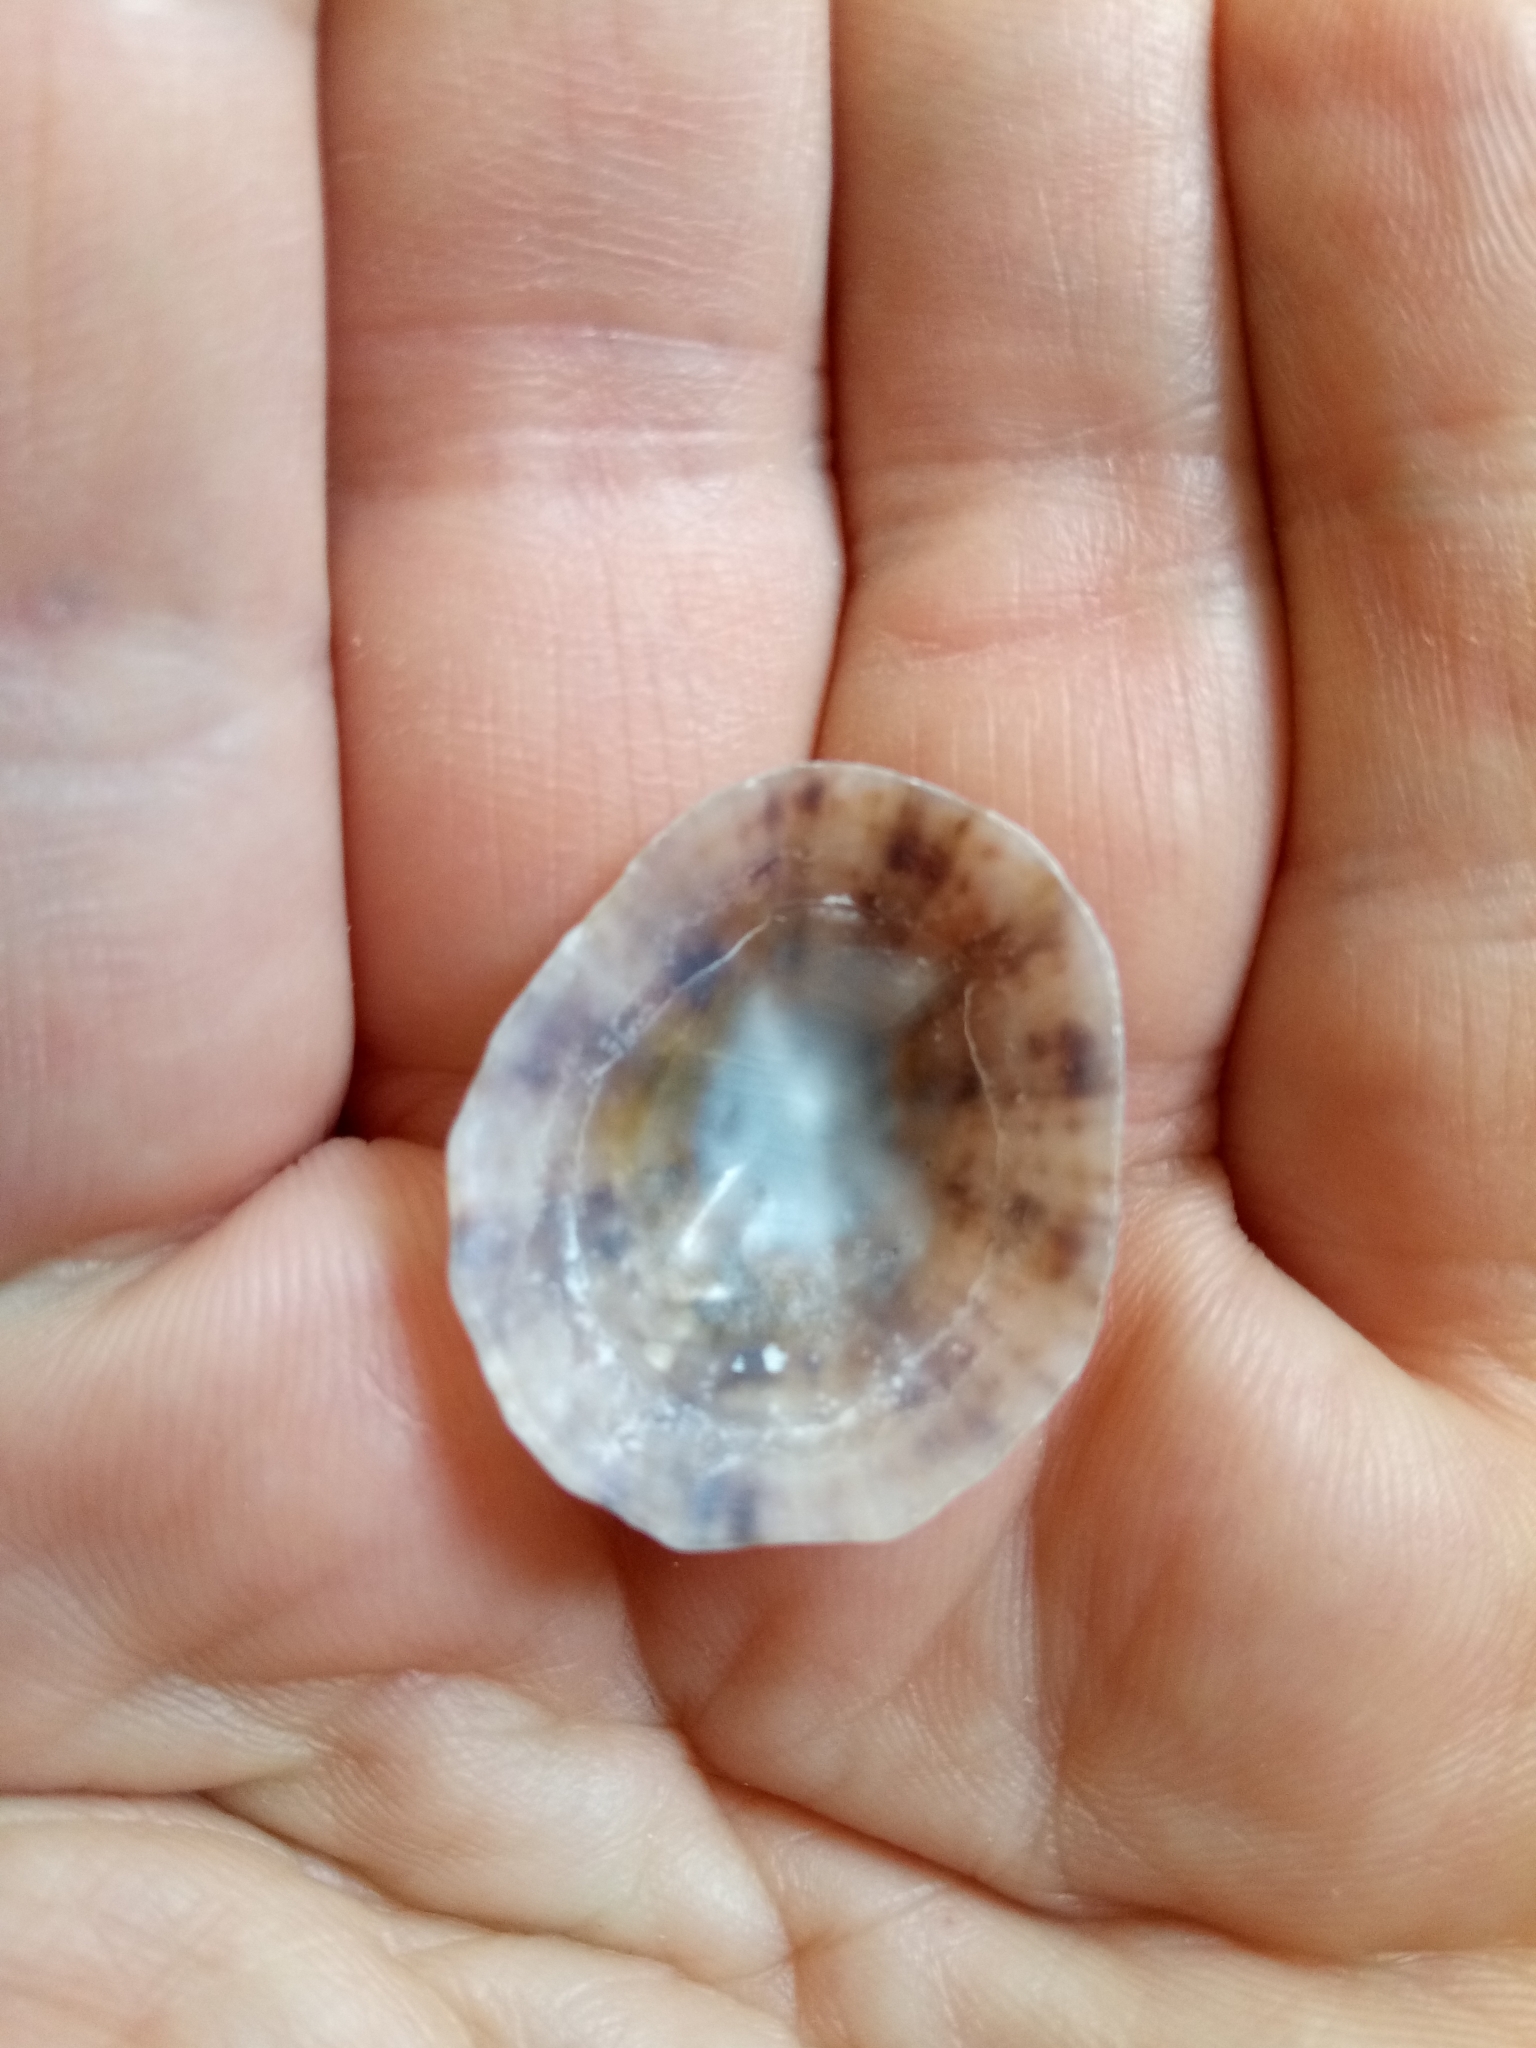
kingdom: Animalia
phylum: Mollusca
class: Gastropoda
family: Patellidae
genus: Patella
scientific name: Patella caerulea
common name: Mediterranean limpet
